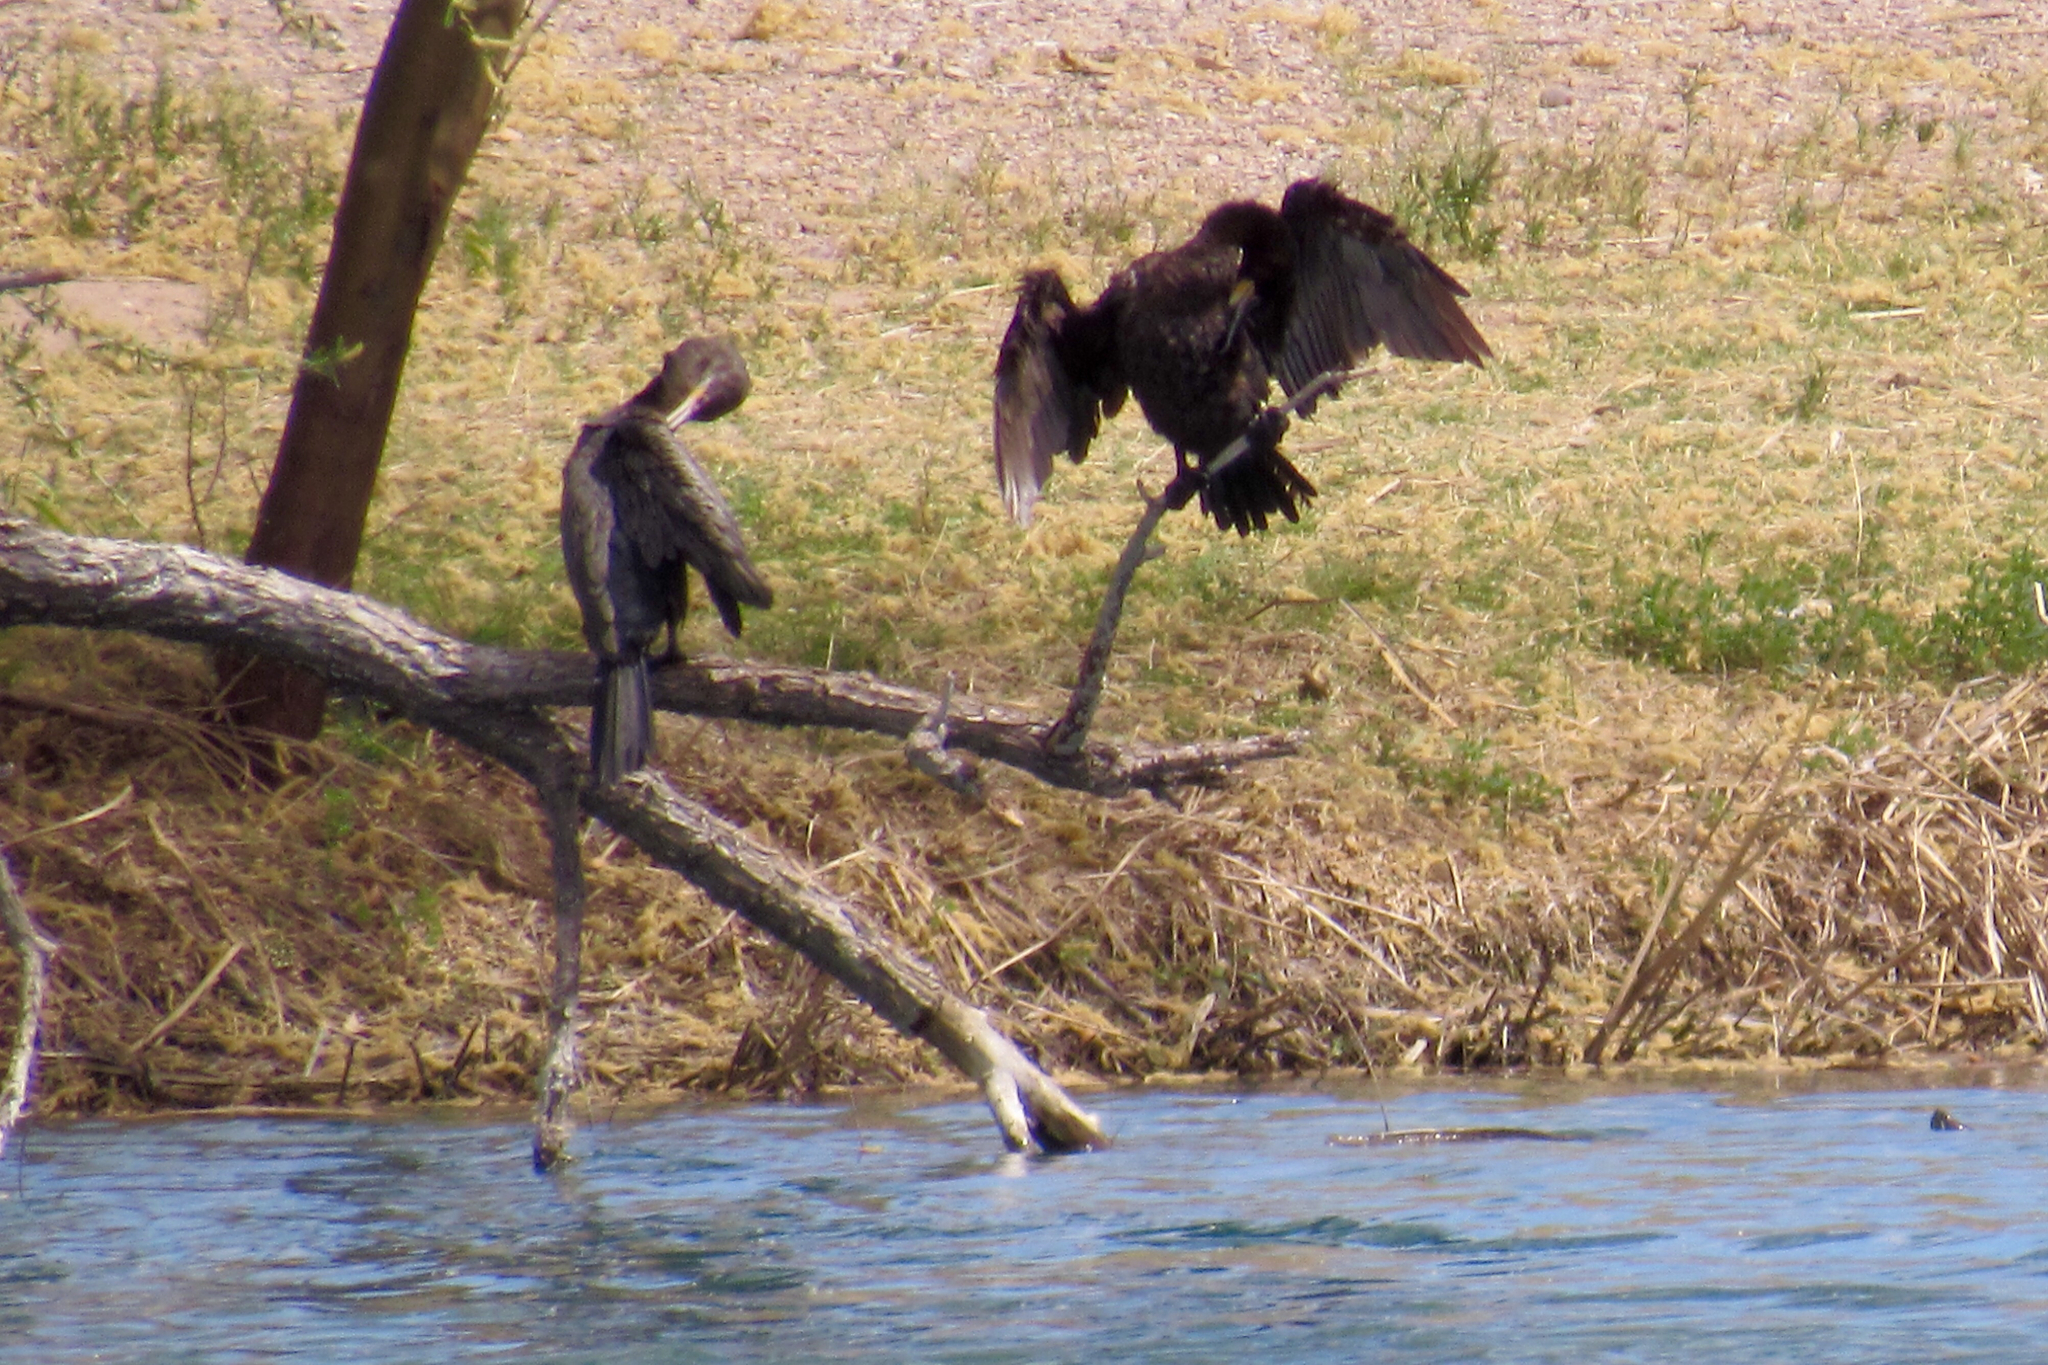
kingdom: Animalia
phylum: Chordata
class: Aves
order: Suliformes
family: Phalacrocoracidae
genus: Phalacrocorax
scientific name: Phalacrocorax brasilianus
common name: Neotropic cormorant
